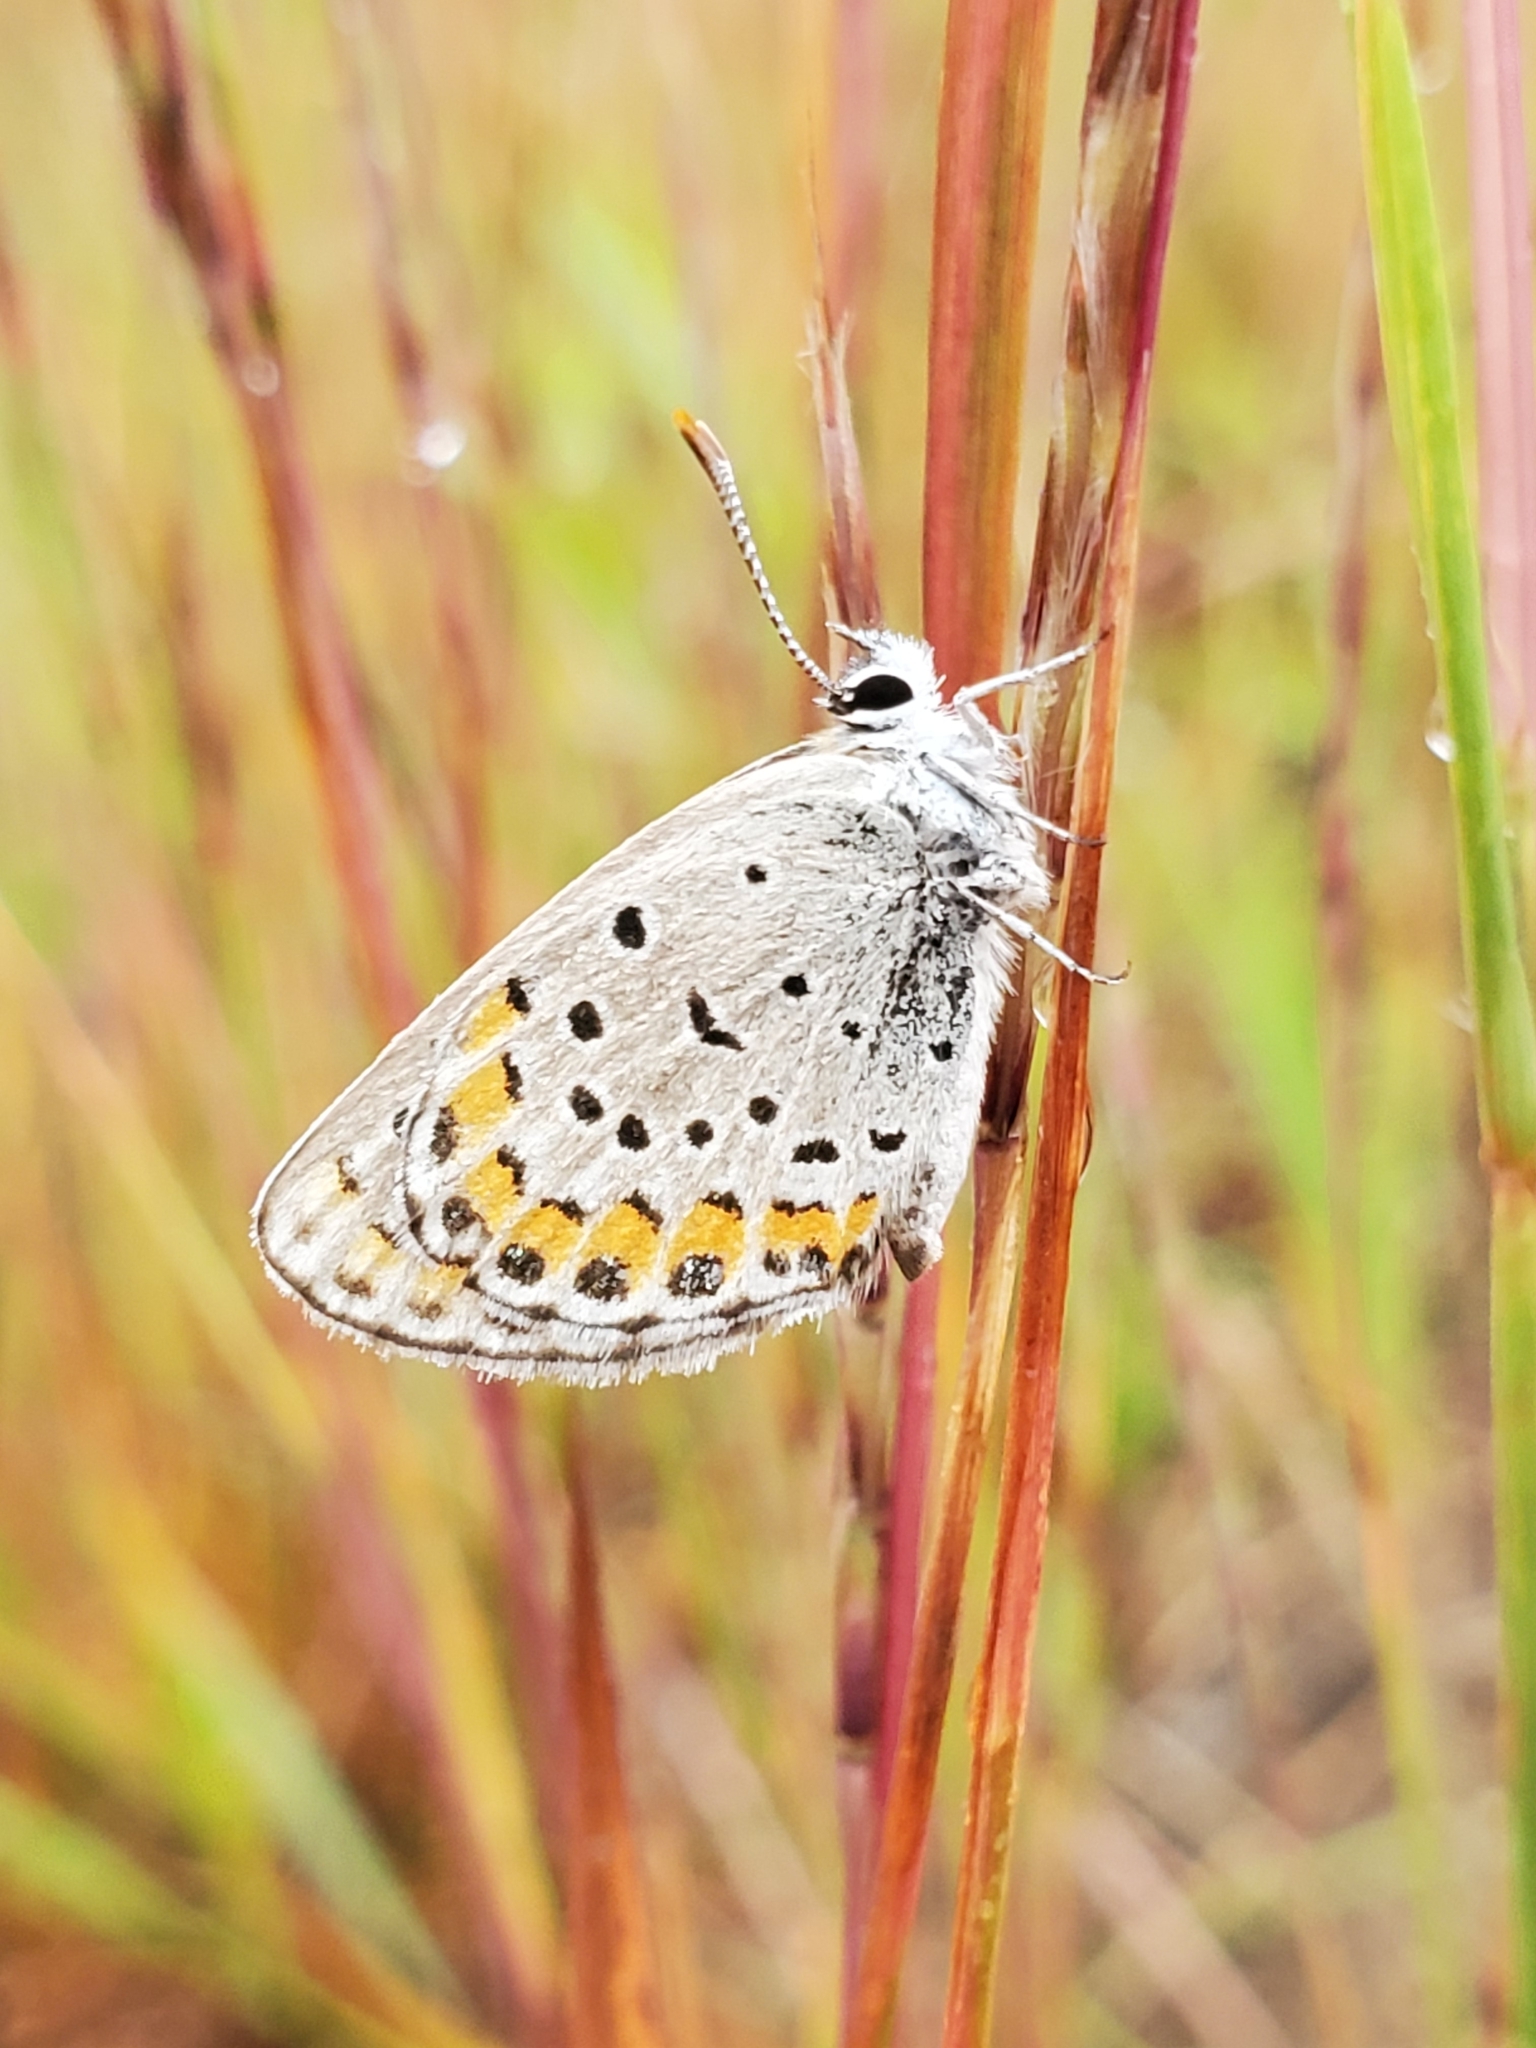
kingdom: Animalia
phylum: Arthropoda
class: Insecta
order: Lepidoptera
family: Lycaenidae
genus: Lycaeides
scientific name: Lycaeides melissa
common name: Melissa blue
